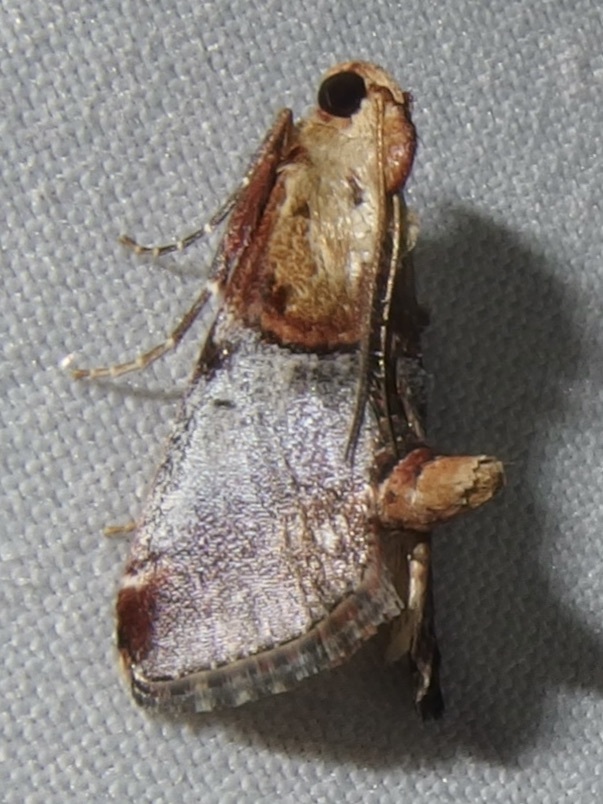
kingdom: Animalia
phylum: Arthropoda
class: Insecta
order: Lepidoptera
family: Pyralidae
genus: Cacozelia
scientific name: Cacozelia basiochrealis
